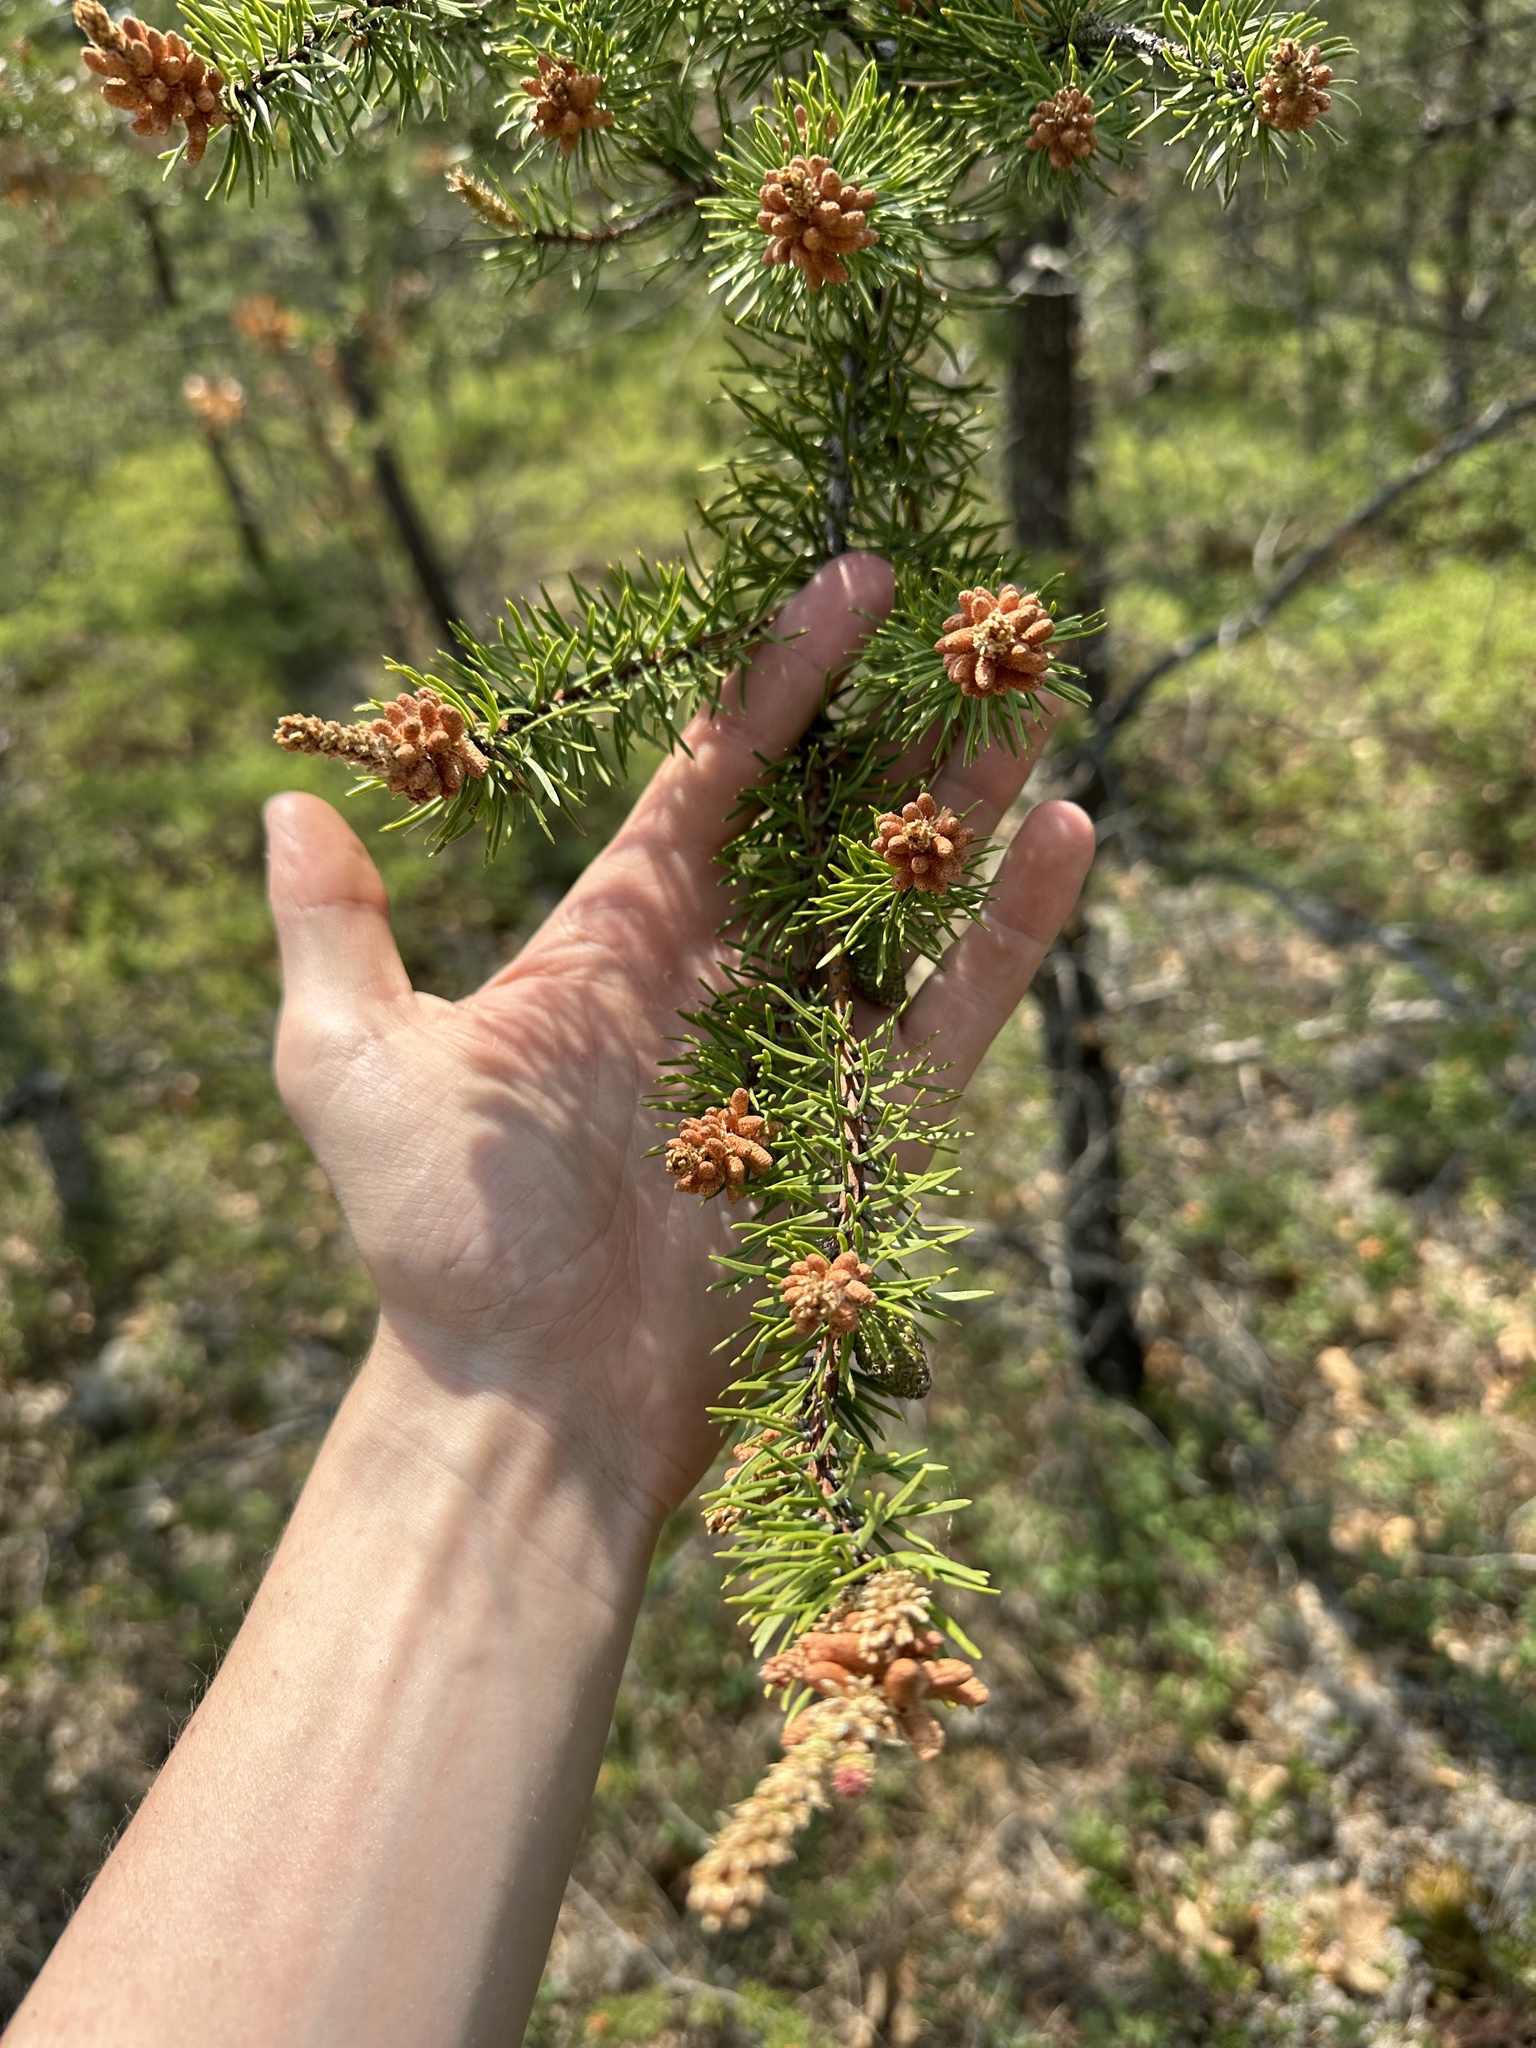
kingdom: Plantae
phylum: Tracheophyta
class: Pinopsida
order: Pinales
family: Pinaceae
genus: Pinus
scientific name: Pinus banksiana
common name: Jack pine
